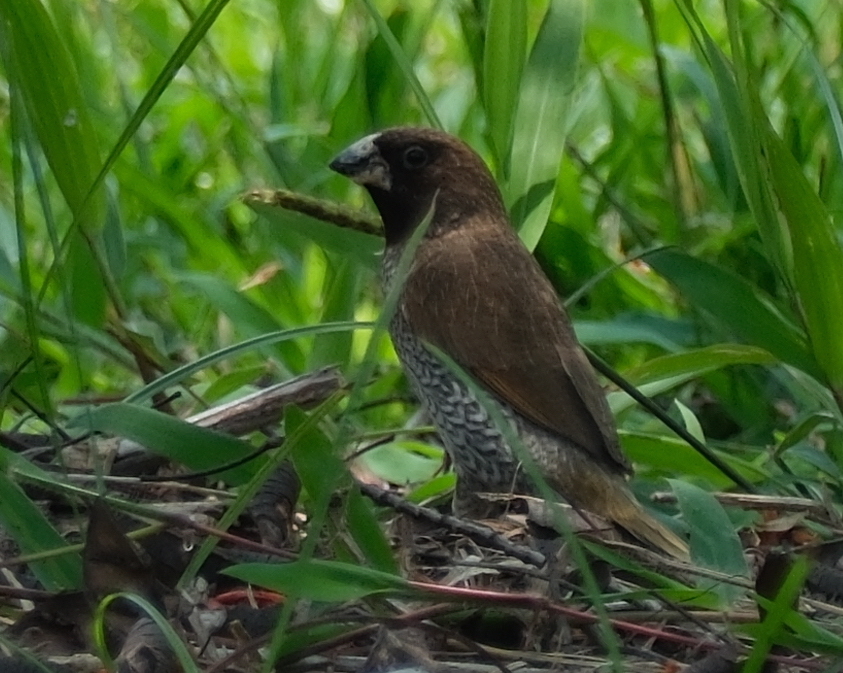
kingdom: Animalia
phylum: Chordata
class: Aves
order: Passeriformes
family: Estrildidae
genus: Lonchura
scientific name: Lonchura punctulata
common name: Scaly-breasted munia
